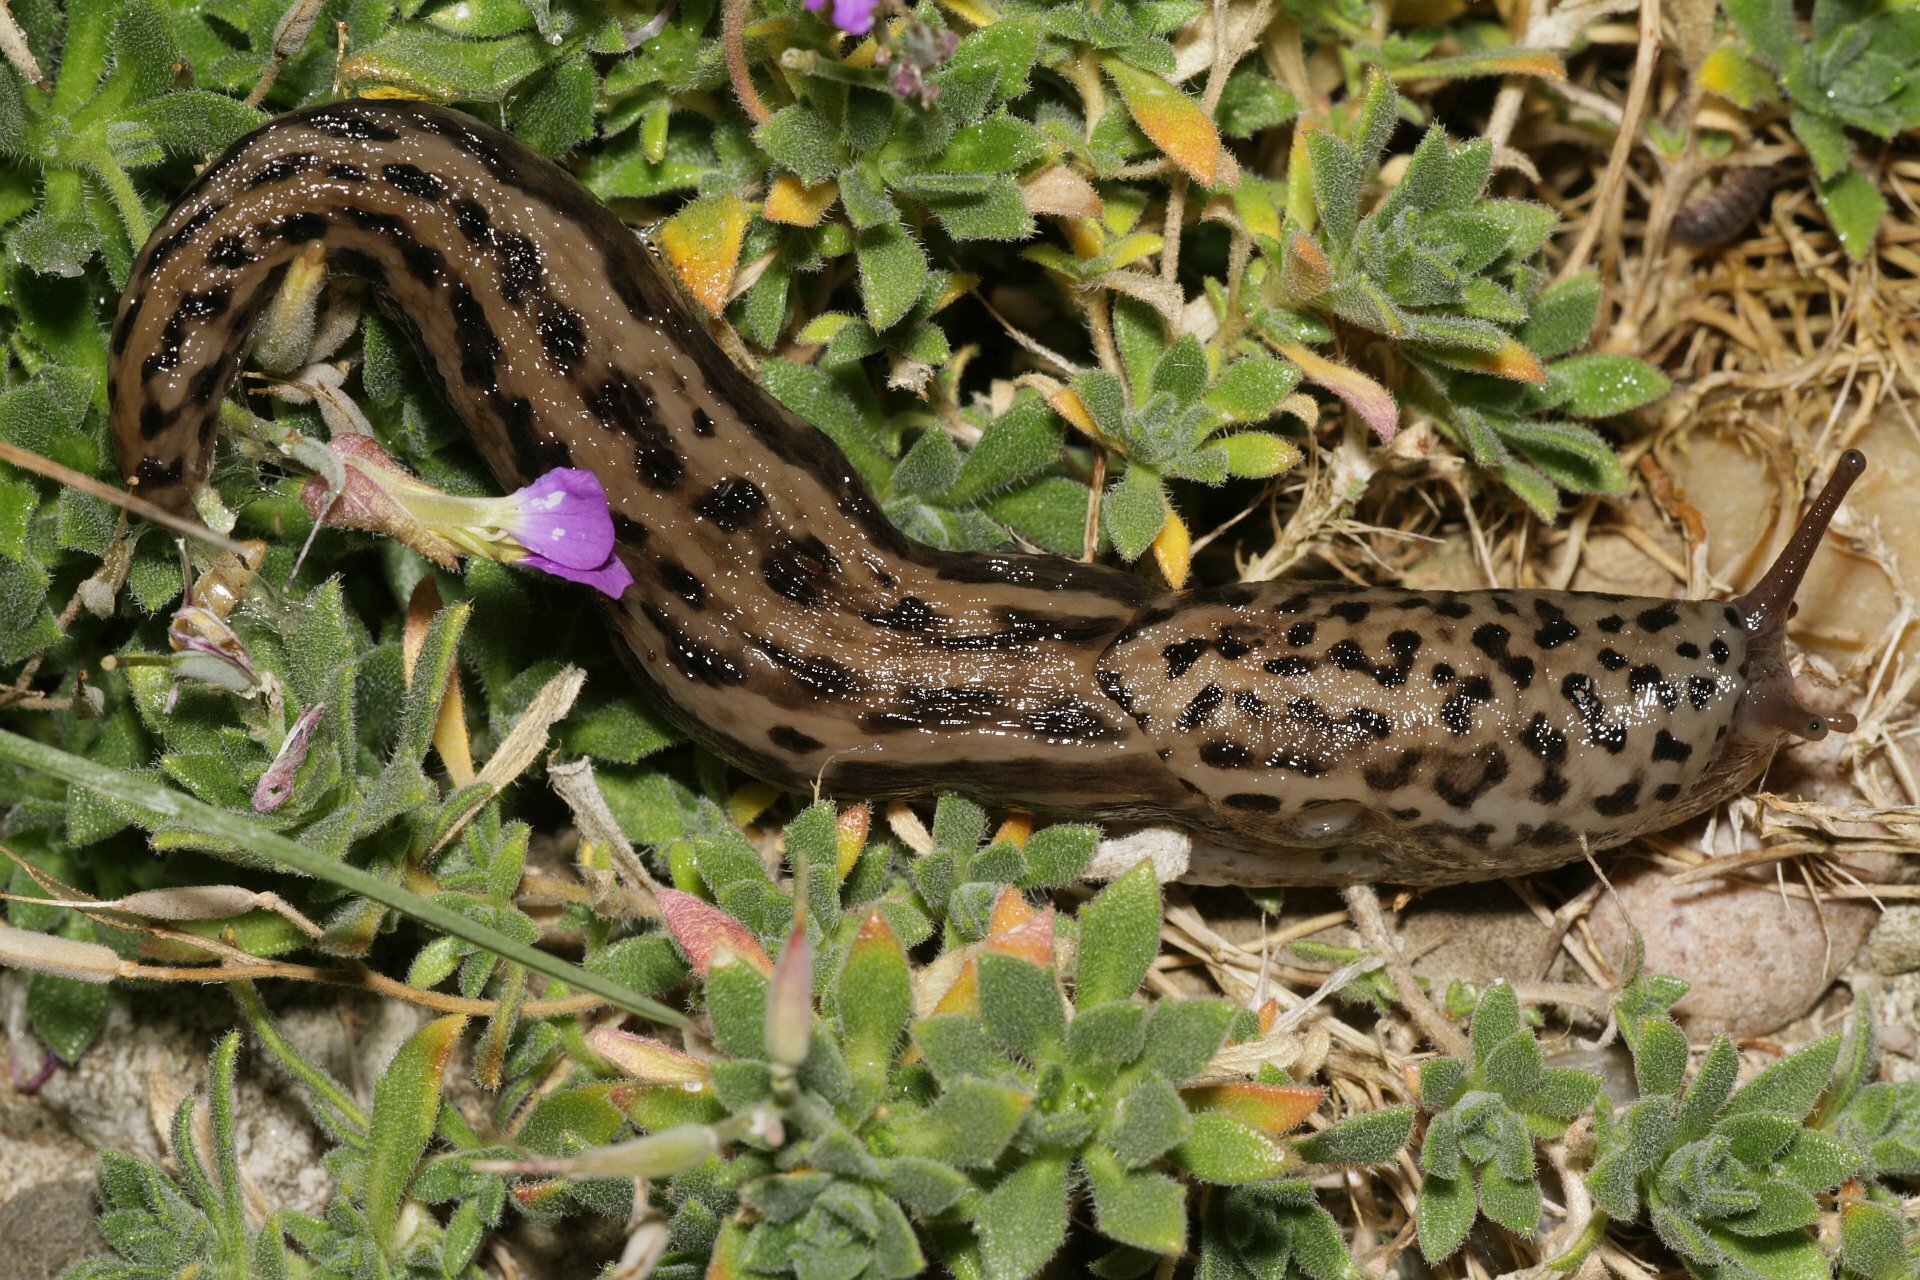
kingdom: Animalia
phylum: Mollusca
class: Gastropoda
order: Stylommatophora
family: Limacidae
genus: Limax
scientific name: Limax maximus
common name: Great grey slug
